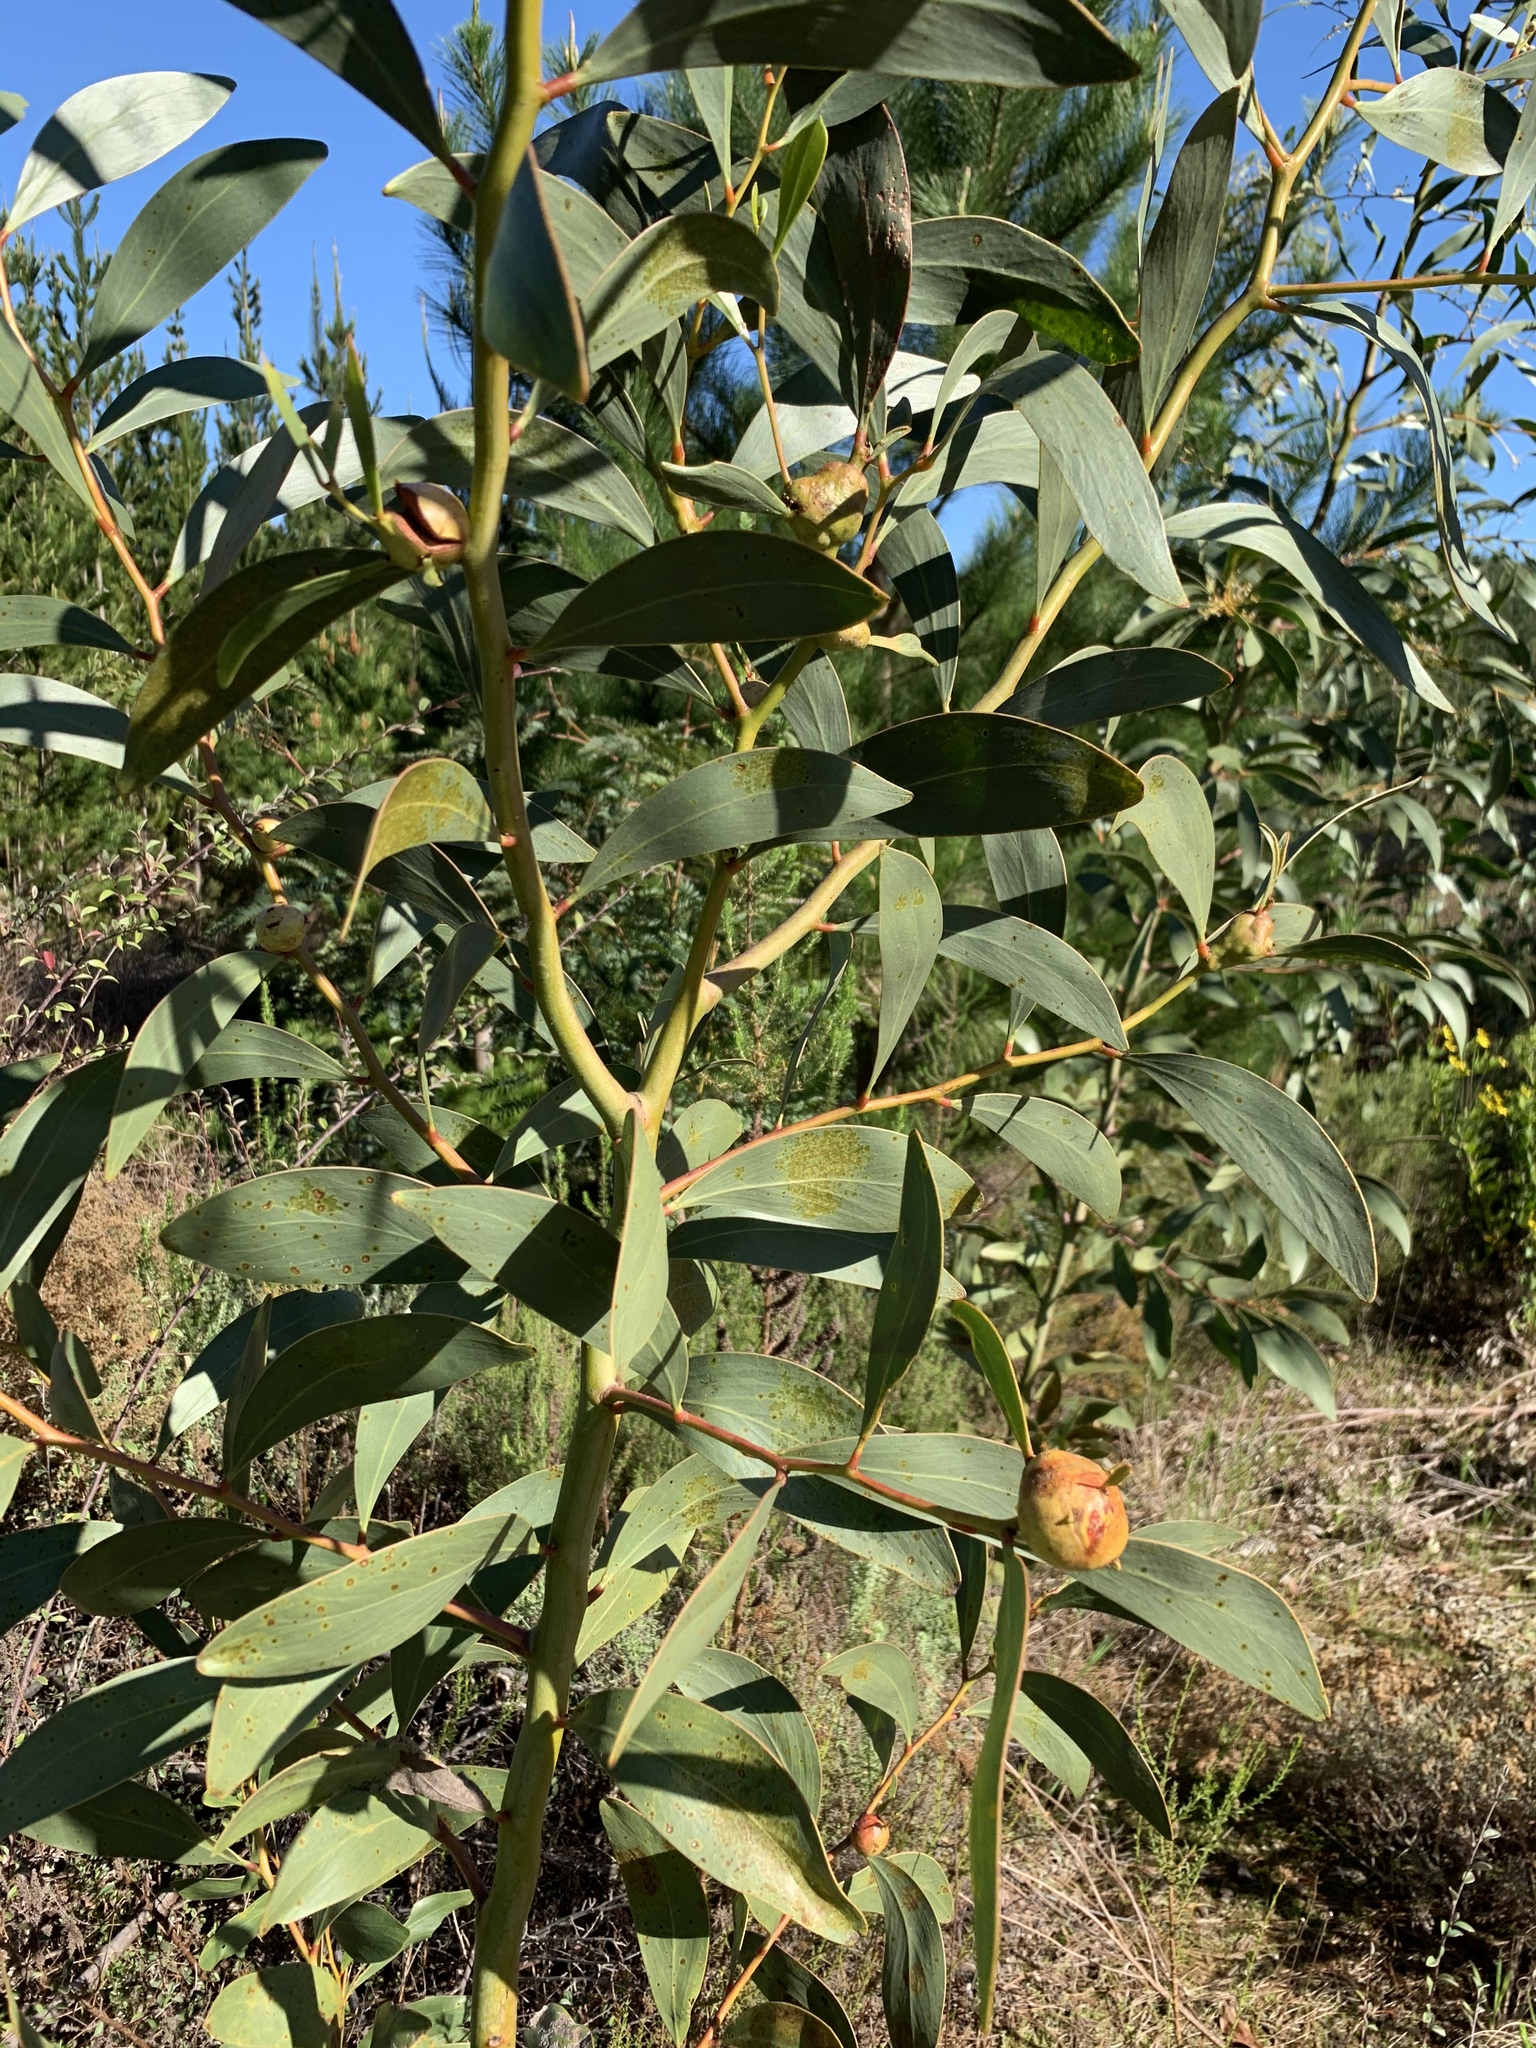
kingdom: Plantae
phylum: Tracheophyta
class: Magnoliopsida
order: Fabales
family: Fabaceae
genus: Acacia
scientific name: Acacia pycnantha
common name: Golden wattle
